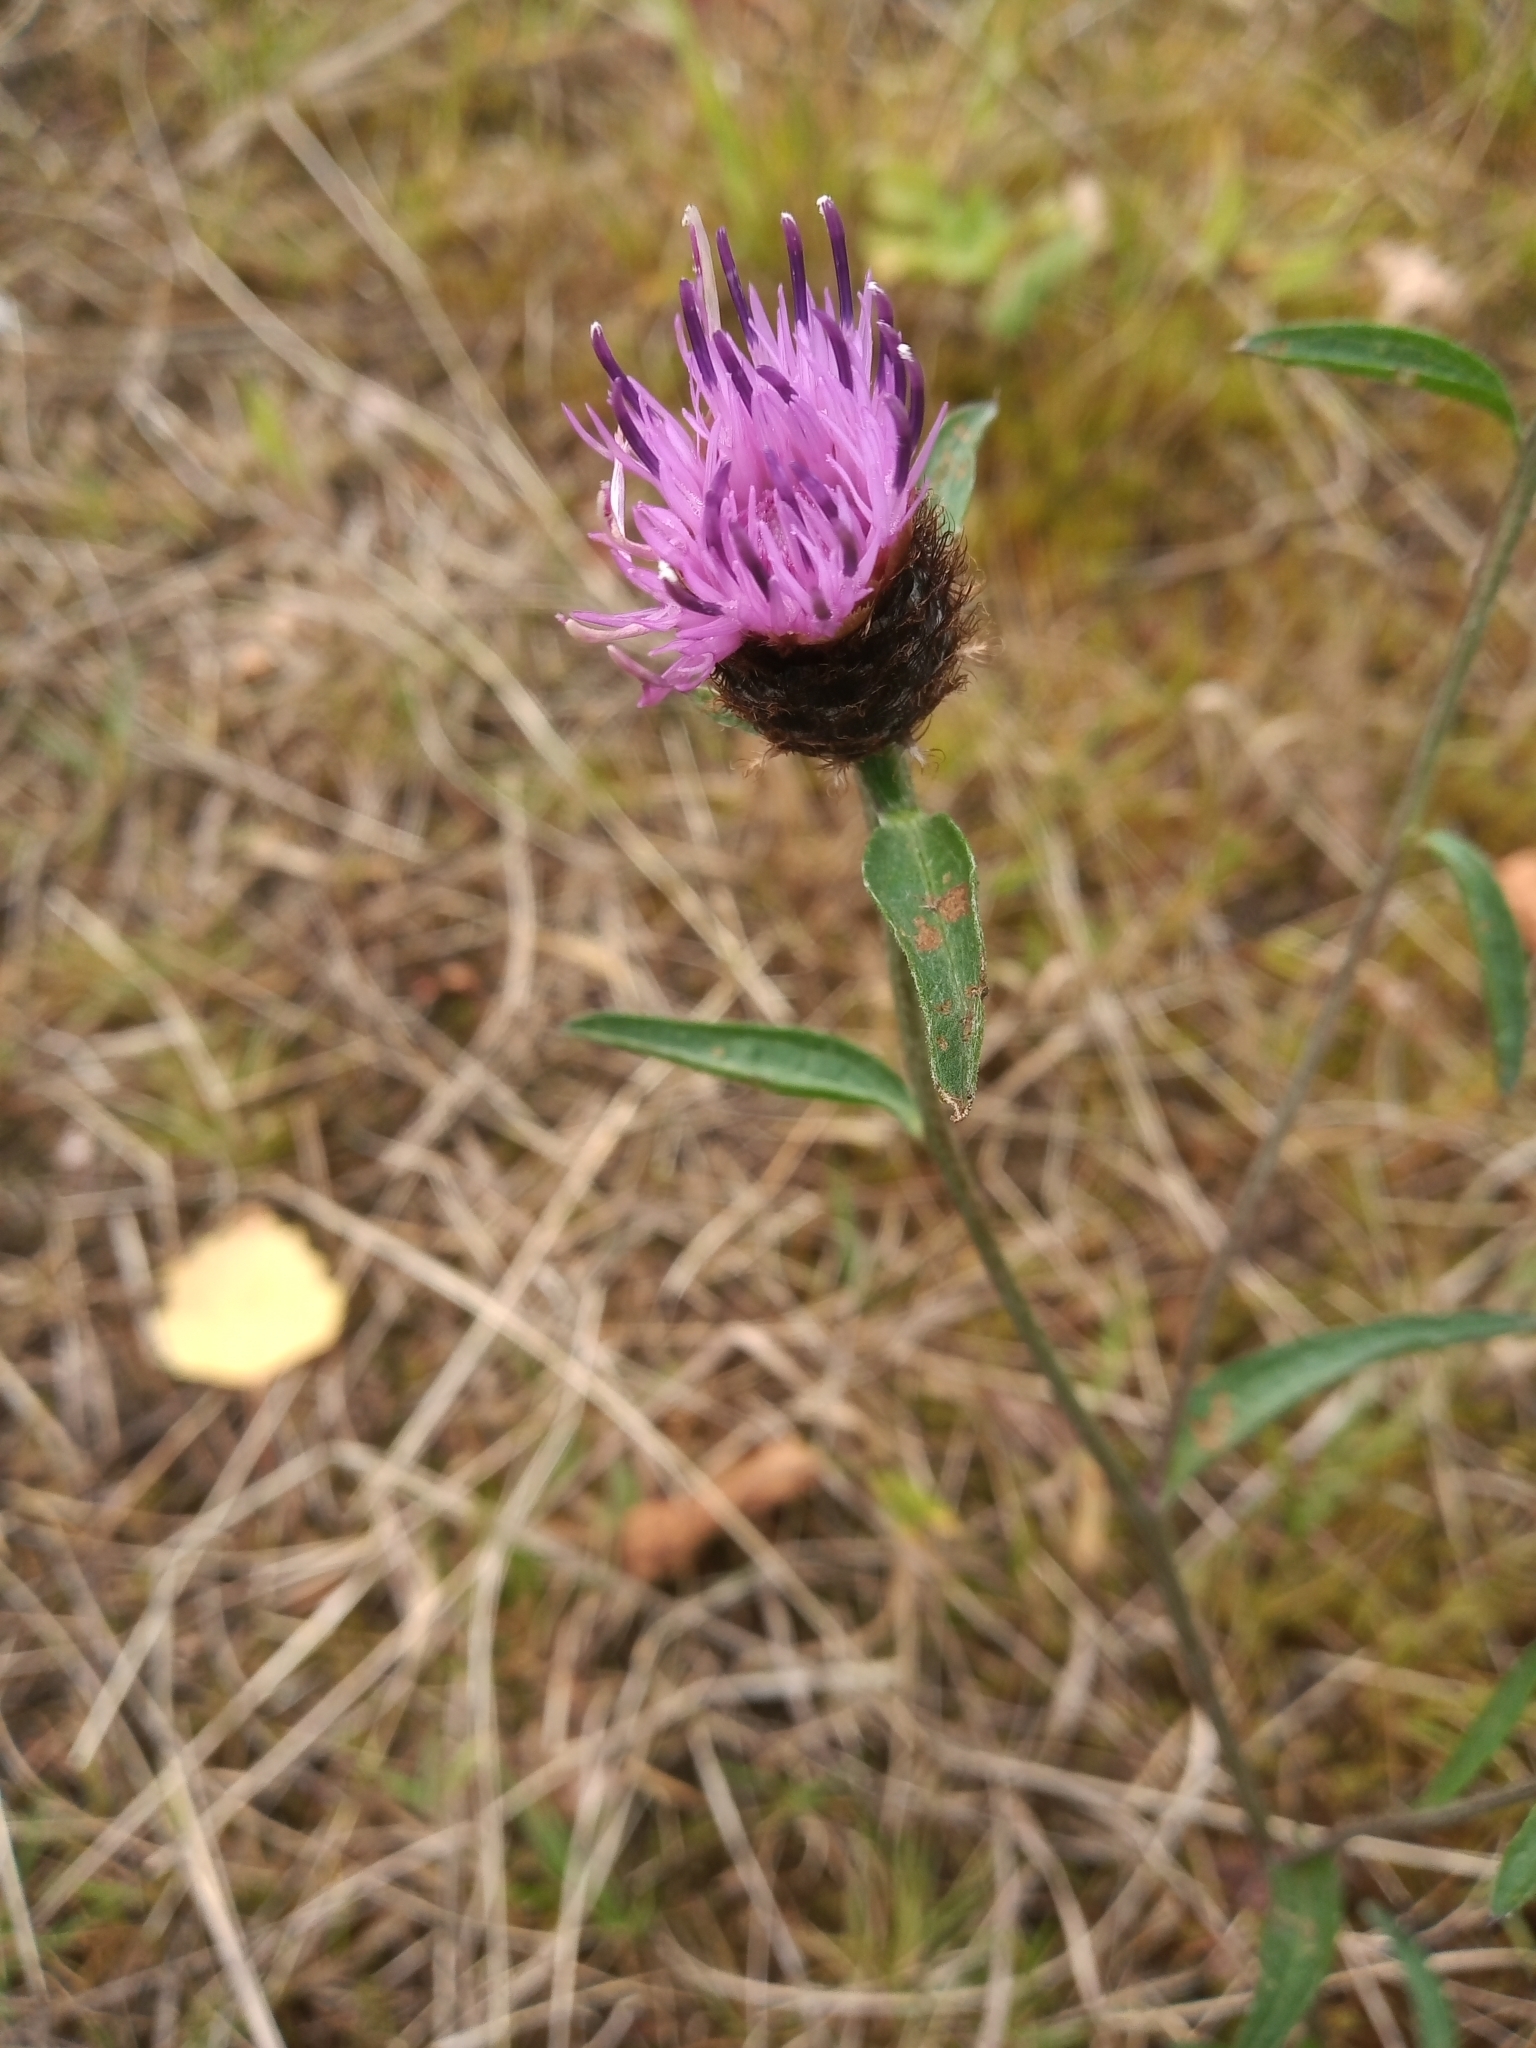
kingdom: Plantae
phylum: Tracheophyta
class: Magnoliopsida
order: Asterales
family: Asteraceae
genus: Centaurea
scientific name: Centaurea nigra
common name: Lesser knapweed
